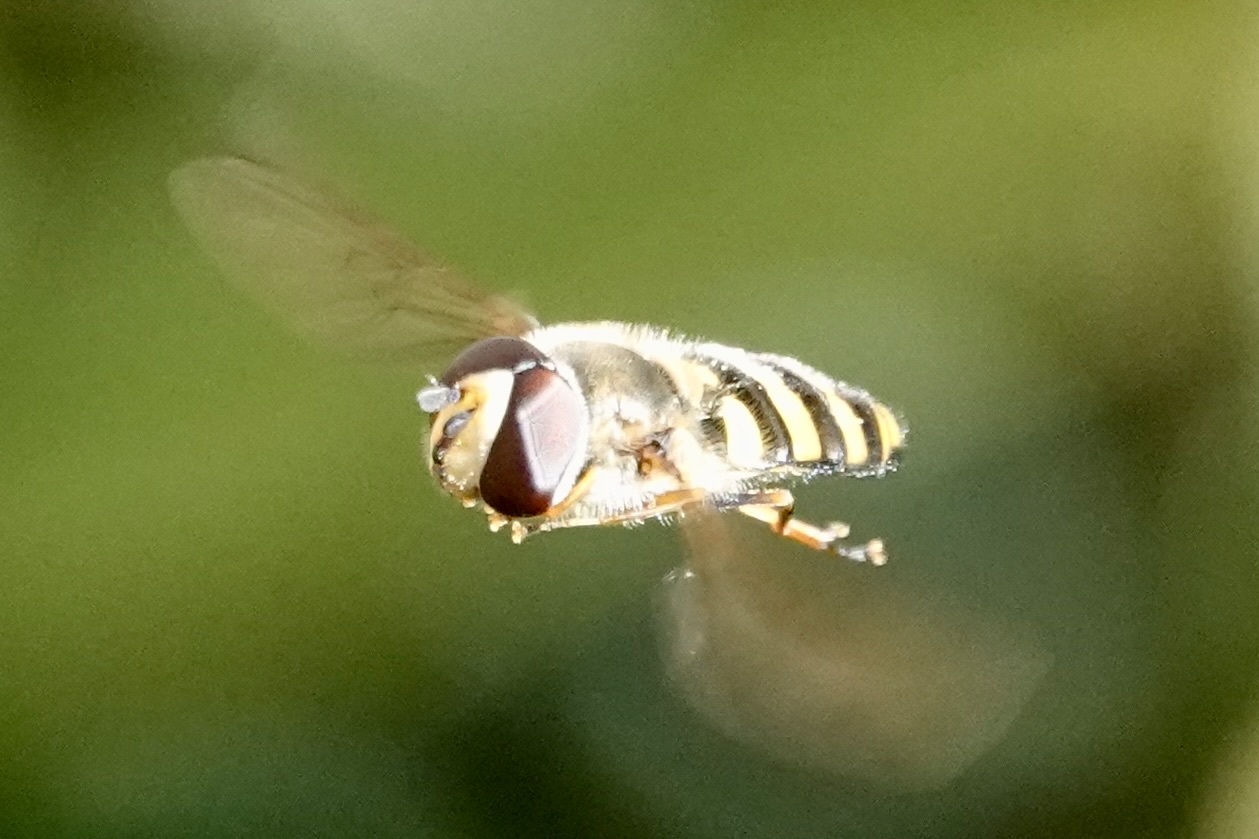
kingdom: Animalia
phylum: Arthropoda
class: Insecta
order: Diptera
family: Syrphidae
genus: Eupeodes
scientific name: Eupeodes
